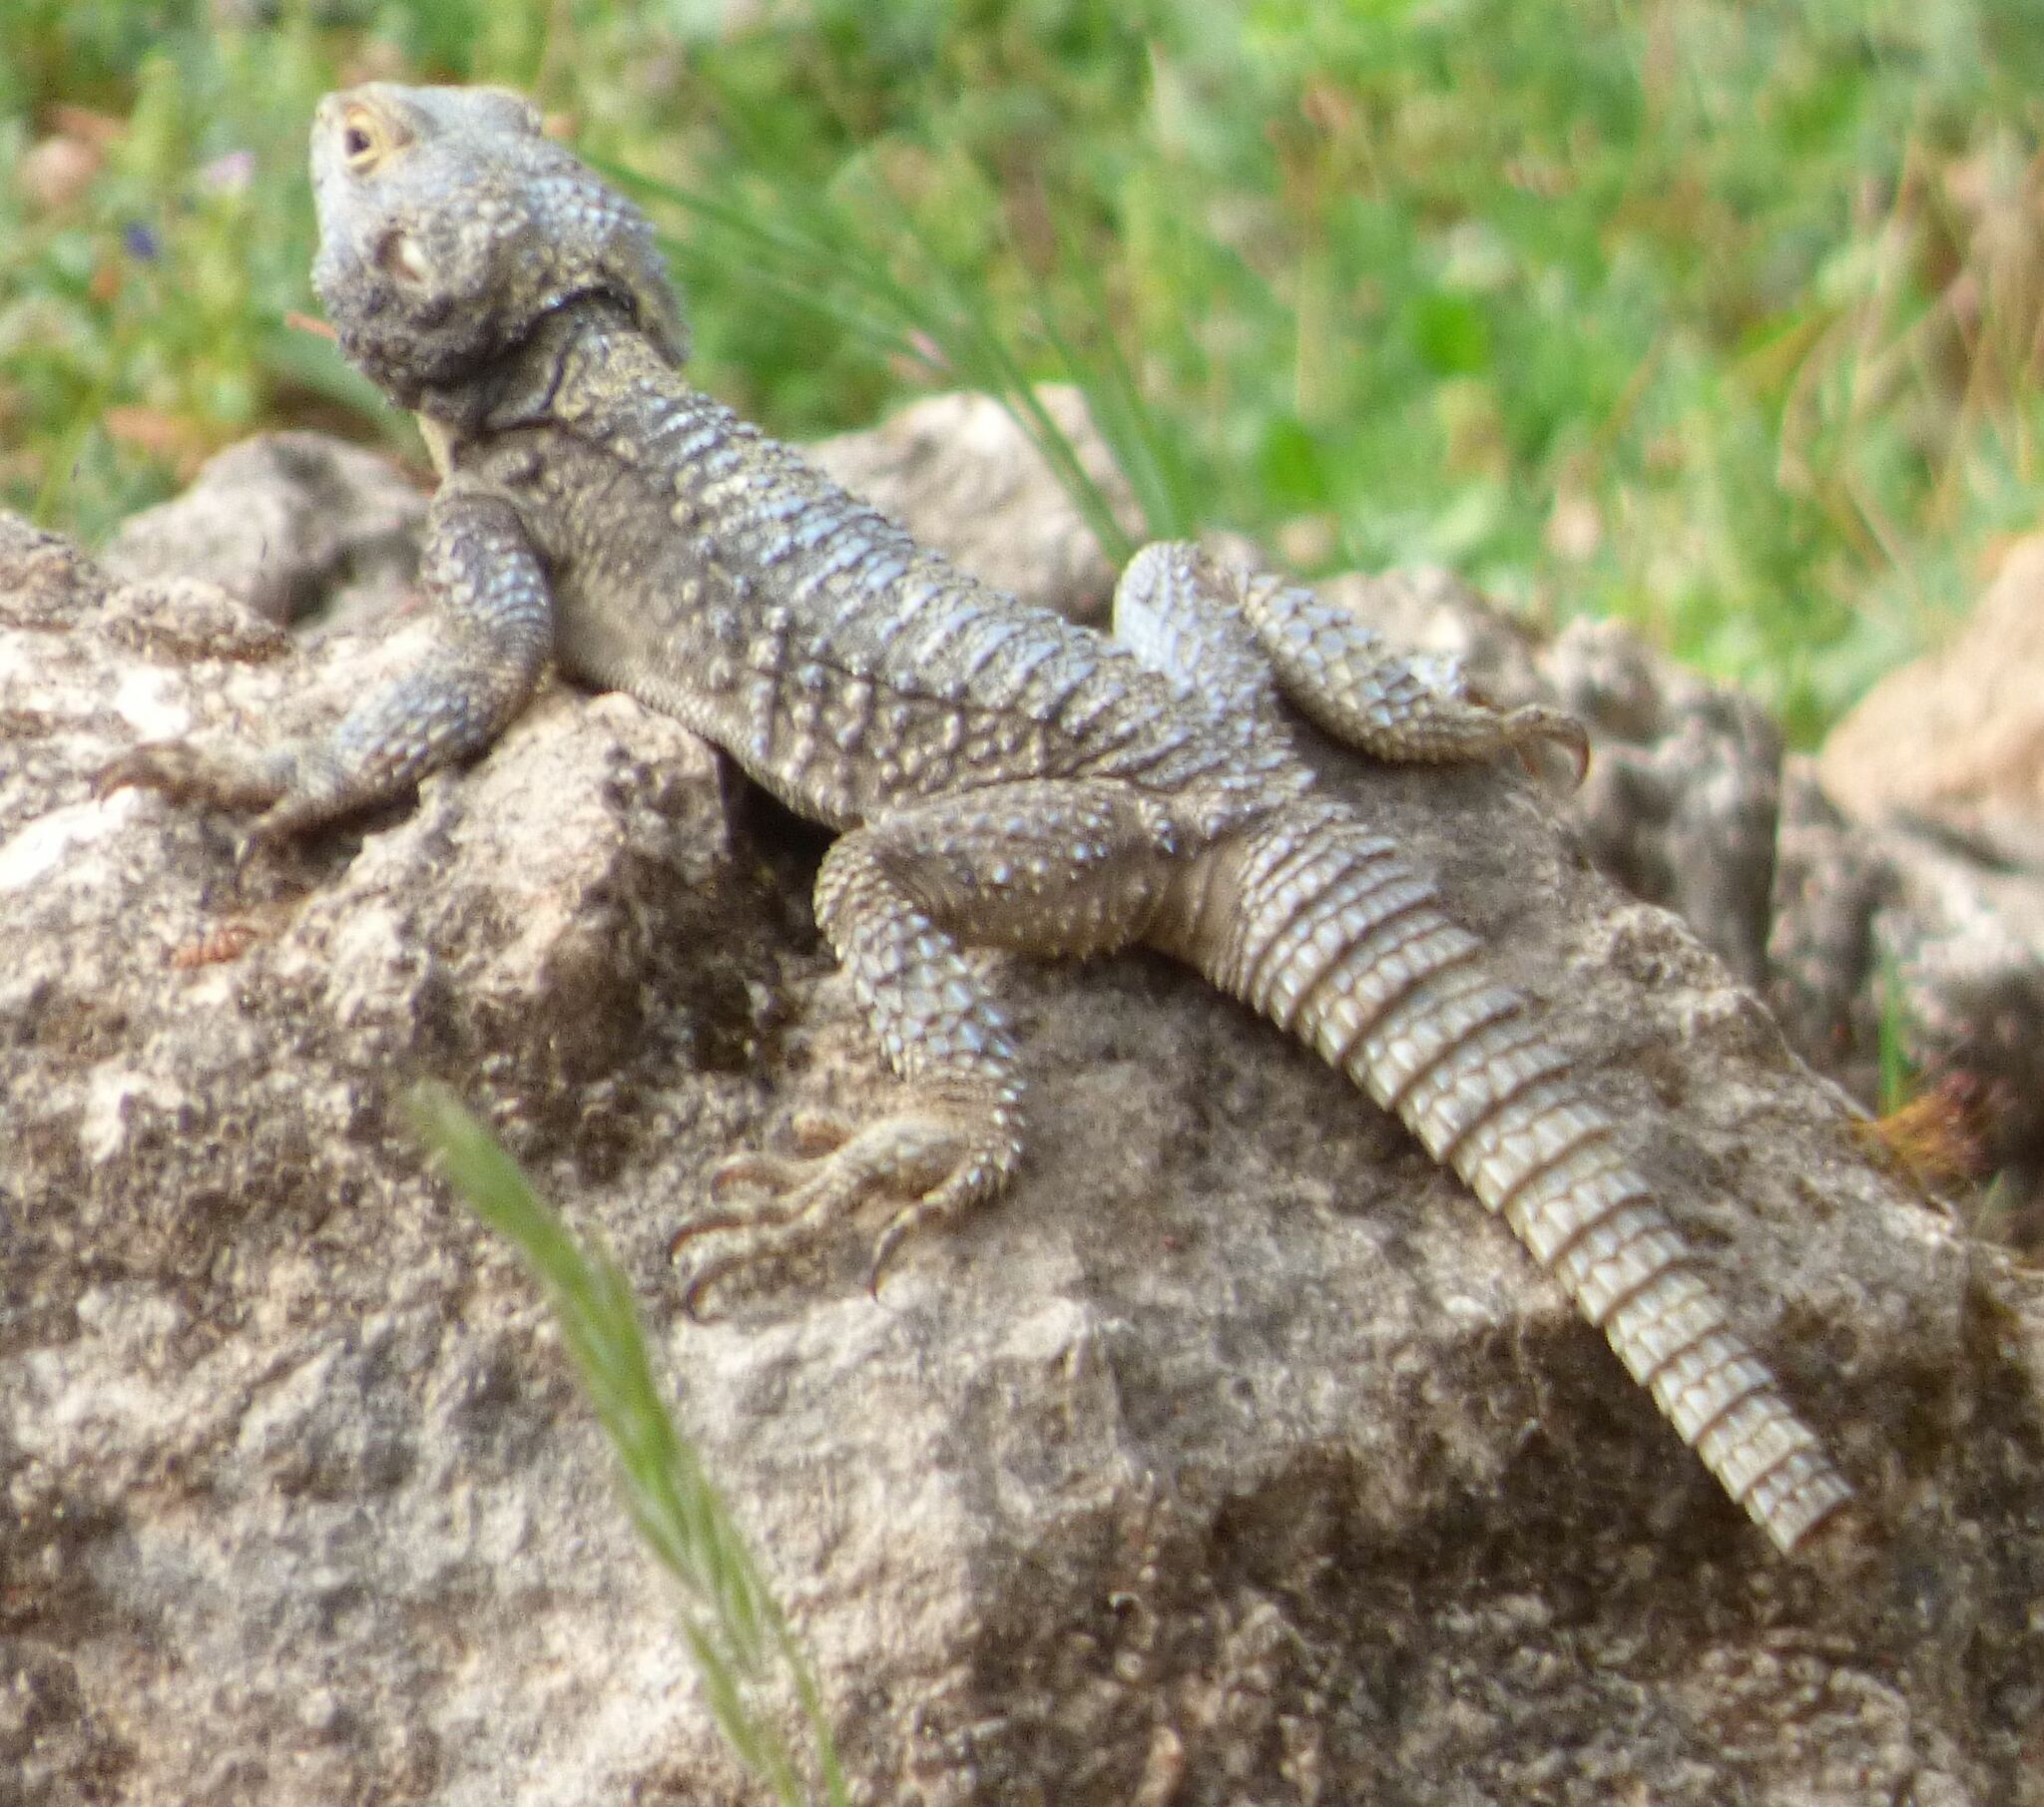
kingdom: Animalia
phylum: Chordata
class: Squamata
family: Agamidae
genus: Stellagama
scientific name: Stellagama stellio
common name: Starred agama
